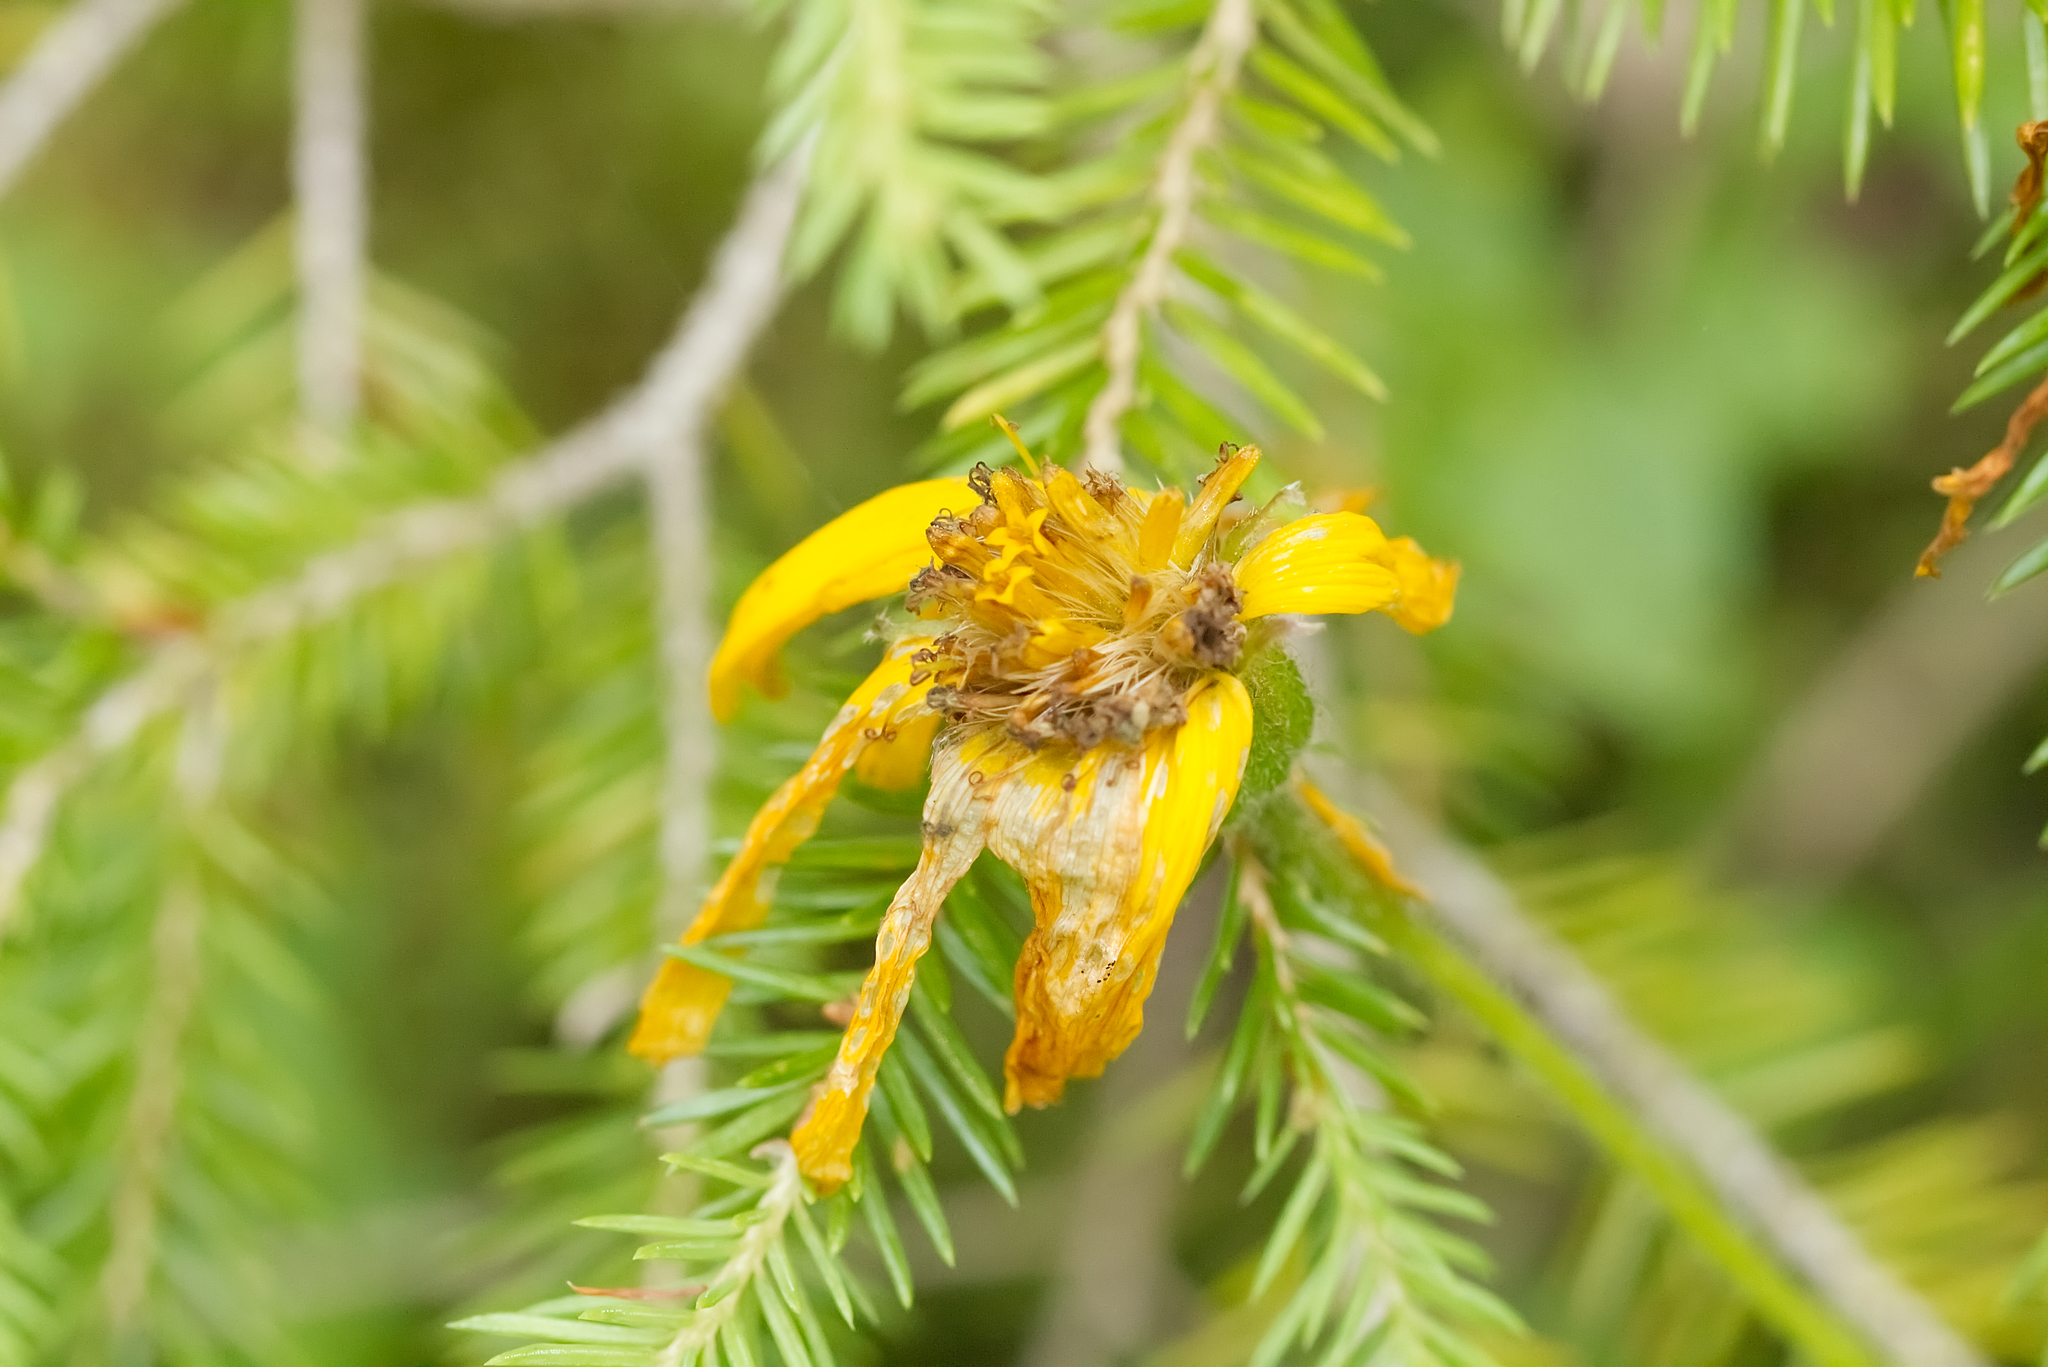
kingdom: Plantae
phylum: Tracheophyta
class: Magnoliopsida
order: Asterales
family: Asteraceae
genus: Arnica
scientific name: Arnica montana
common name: Leopard's bane
